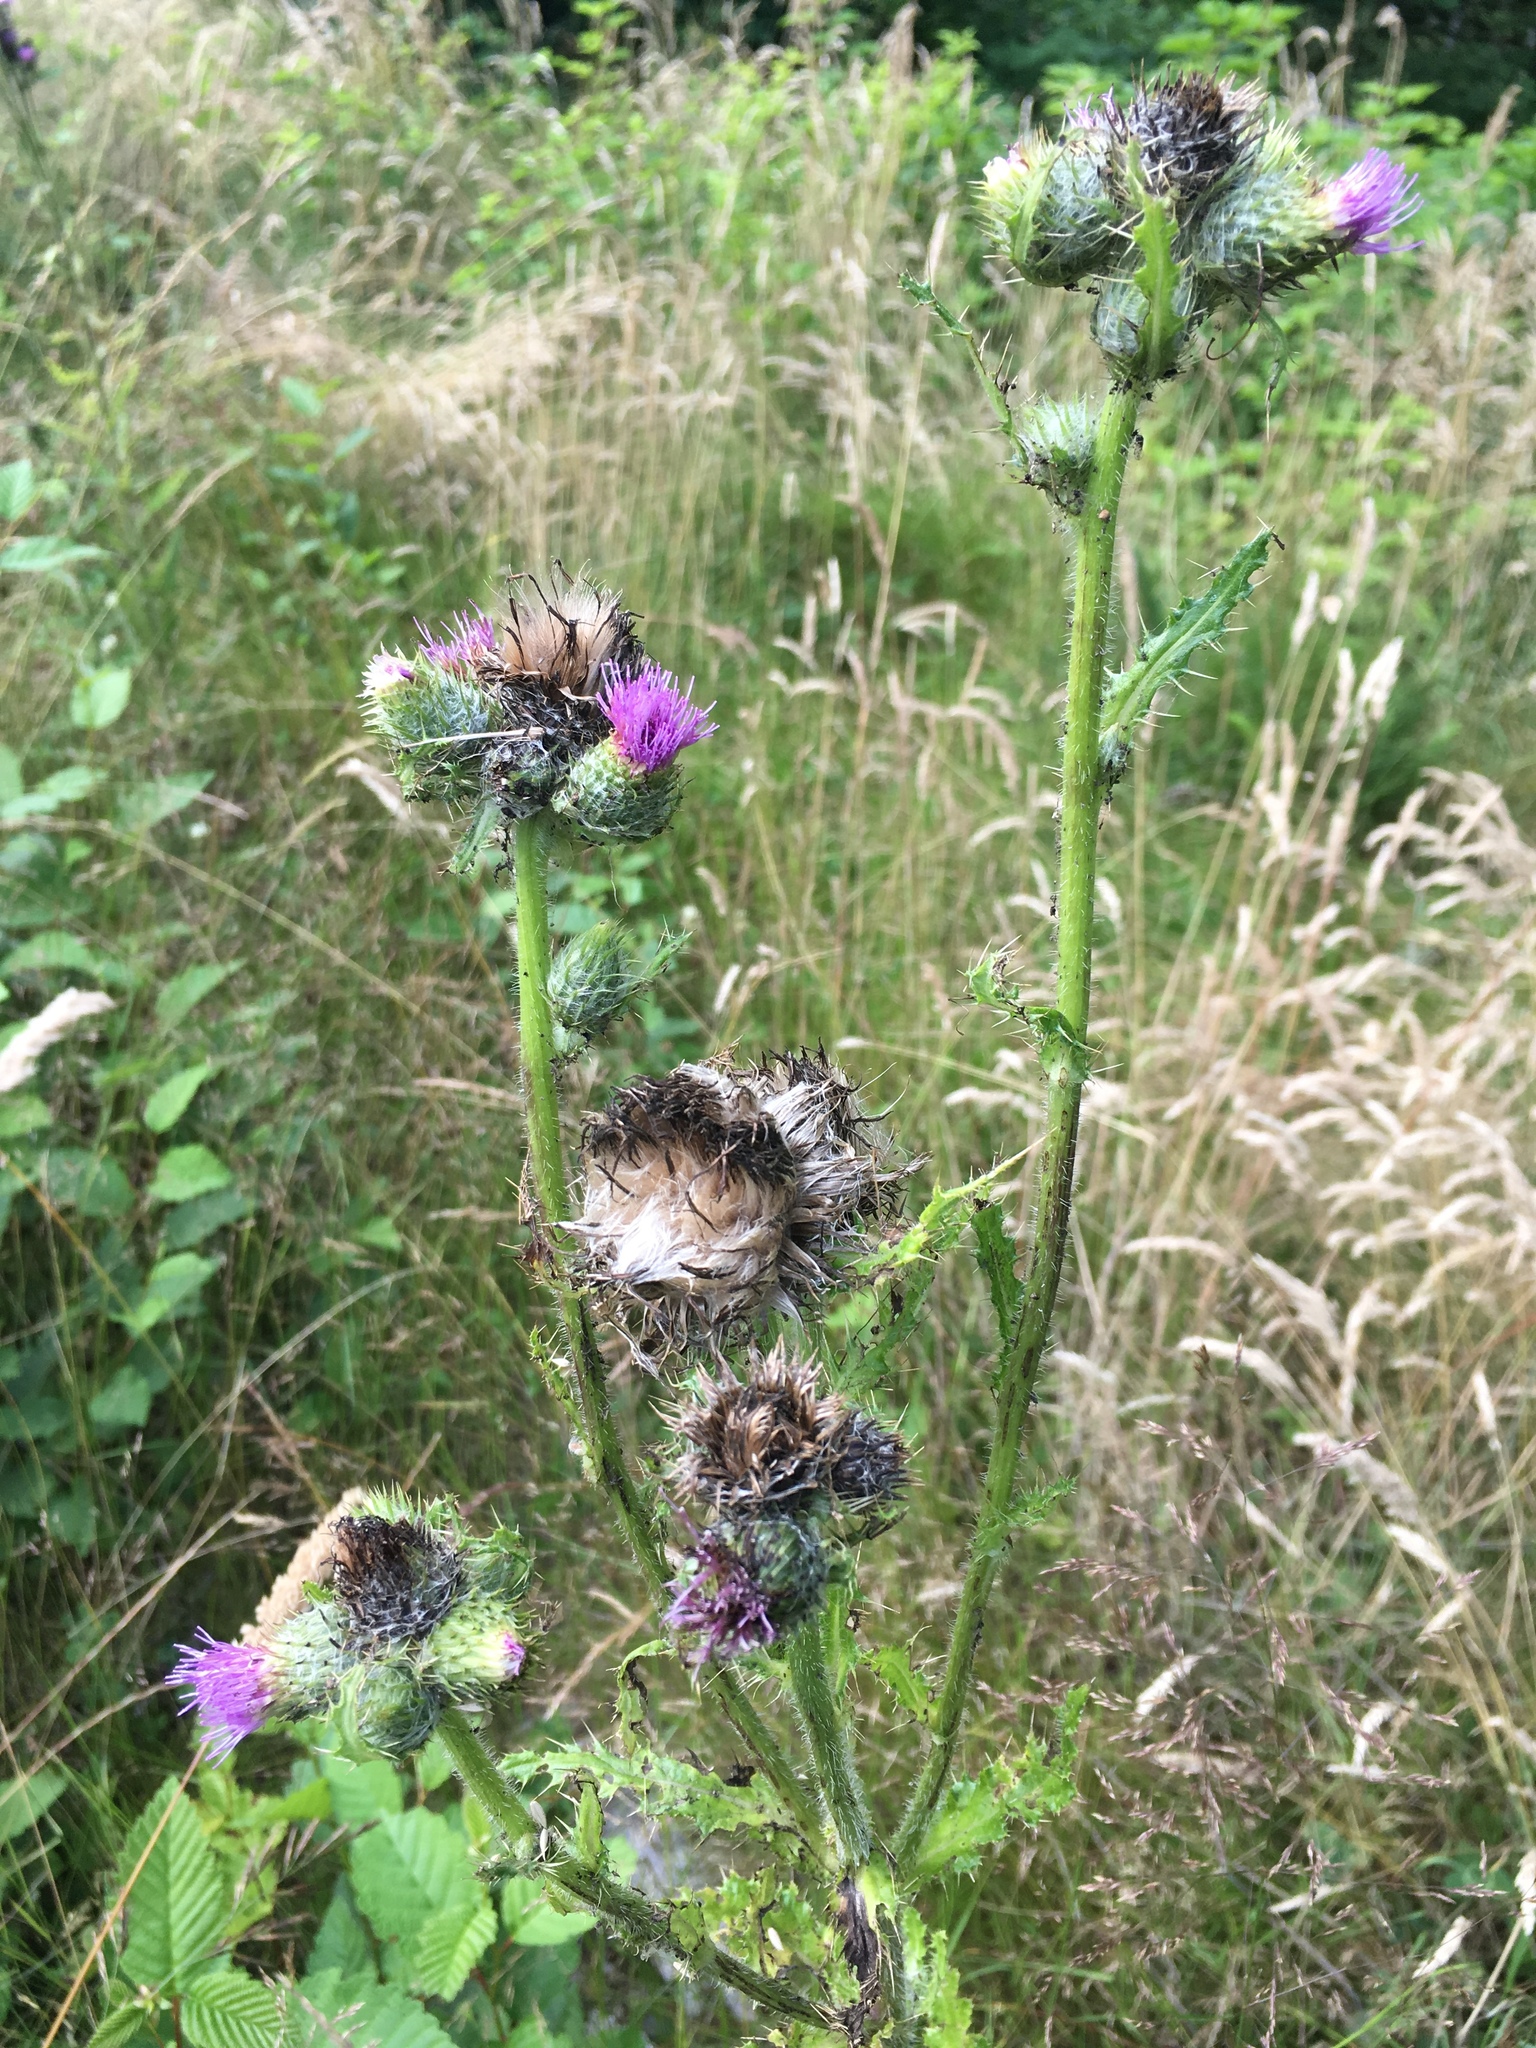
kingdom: Plantae
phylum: Tracheophyta
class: Magnoliopsida
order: Asterales
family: Asteraceae
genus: Cirsium
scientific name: Cirsium brevistylum
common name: Indian thistle
